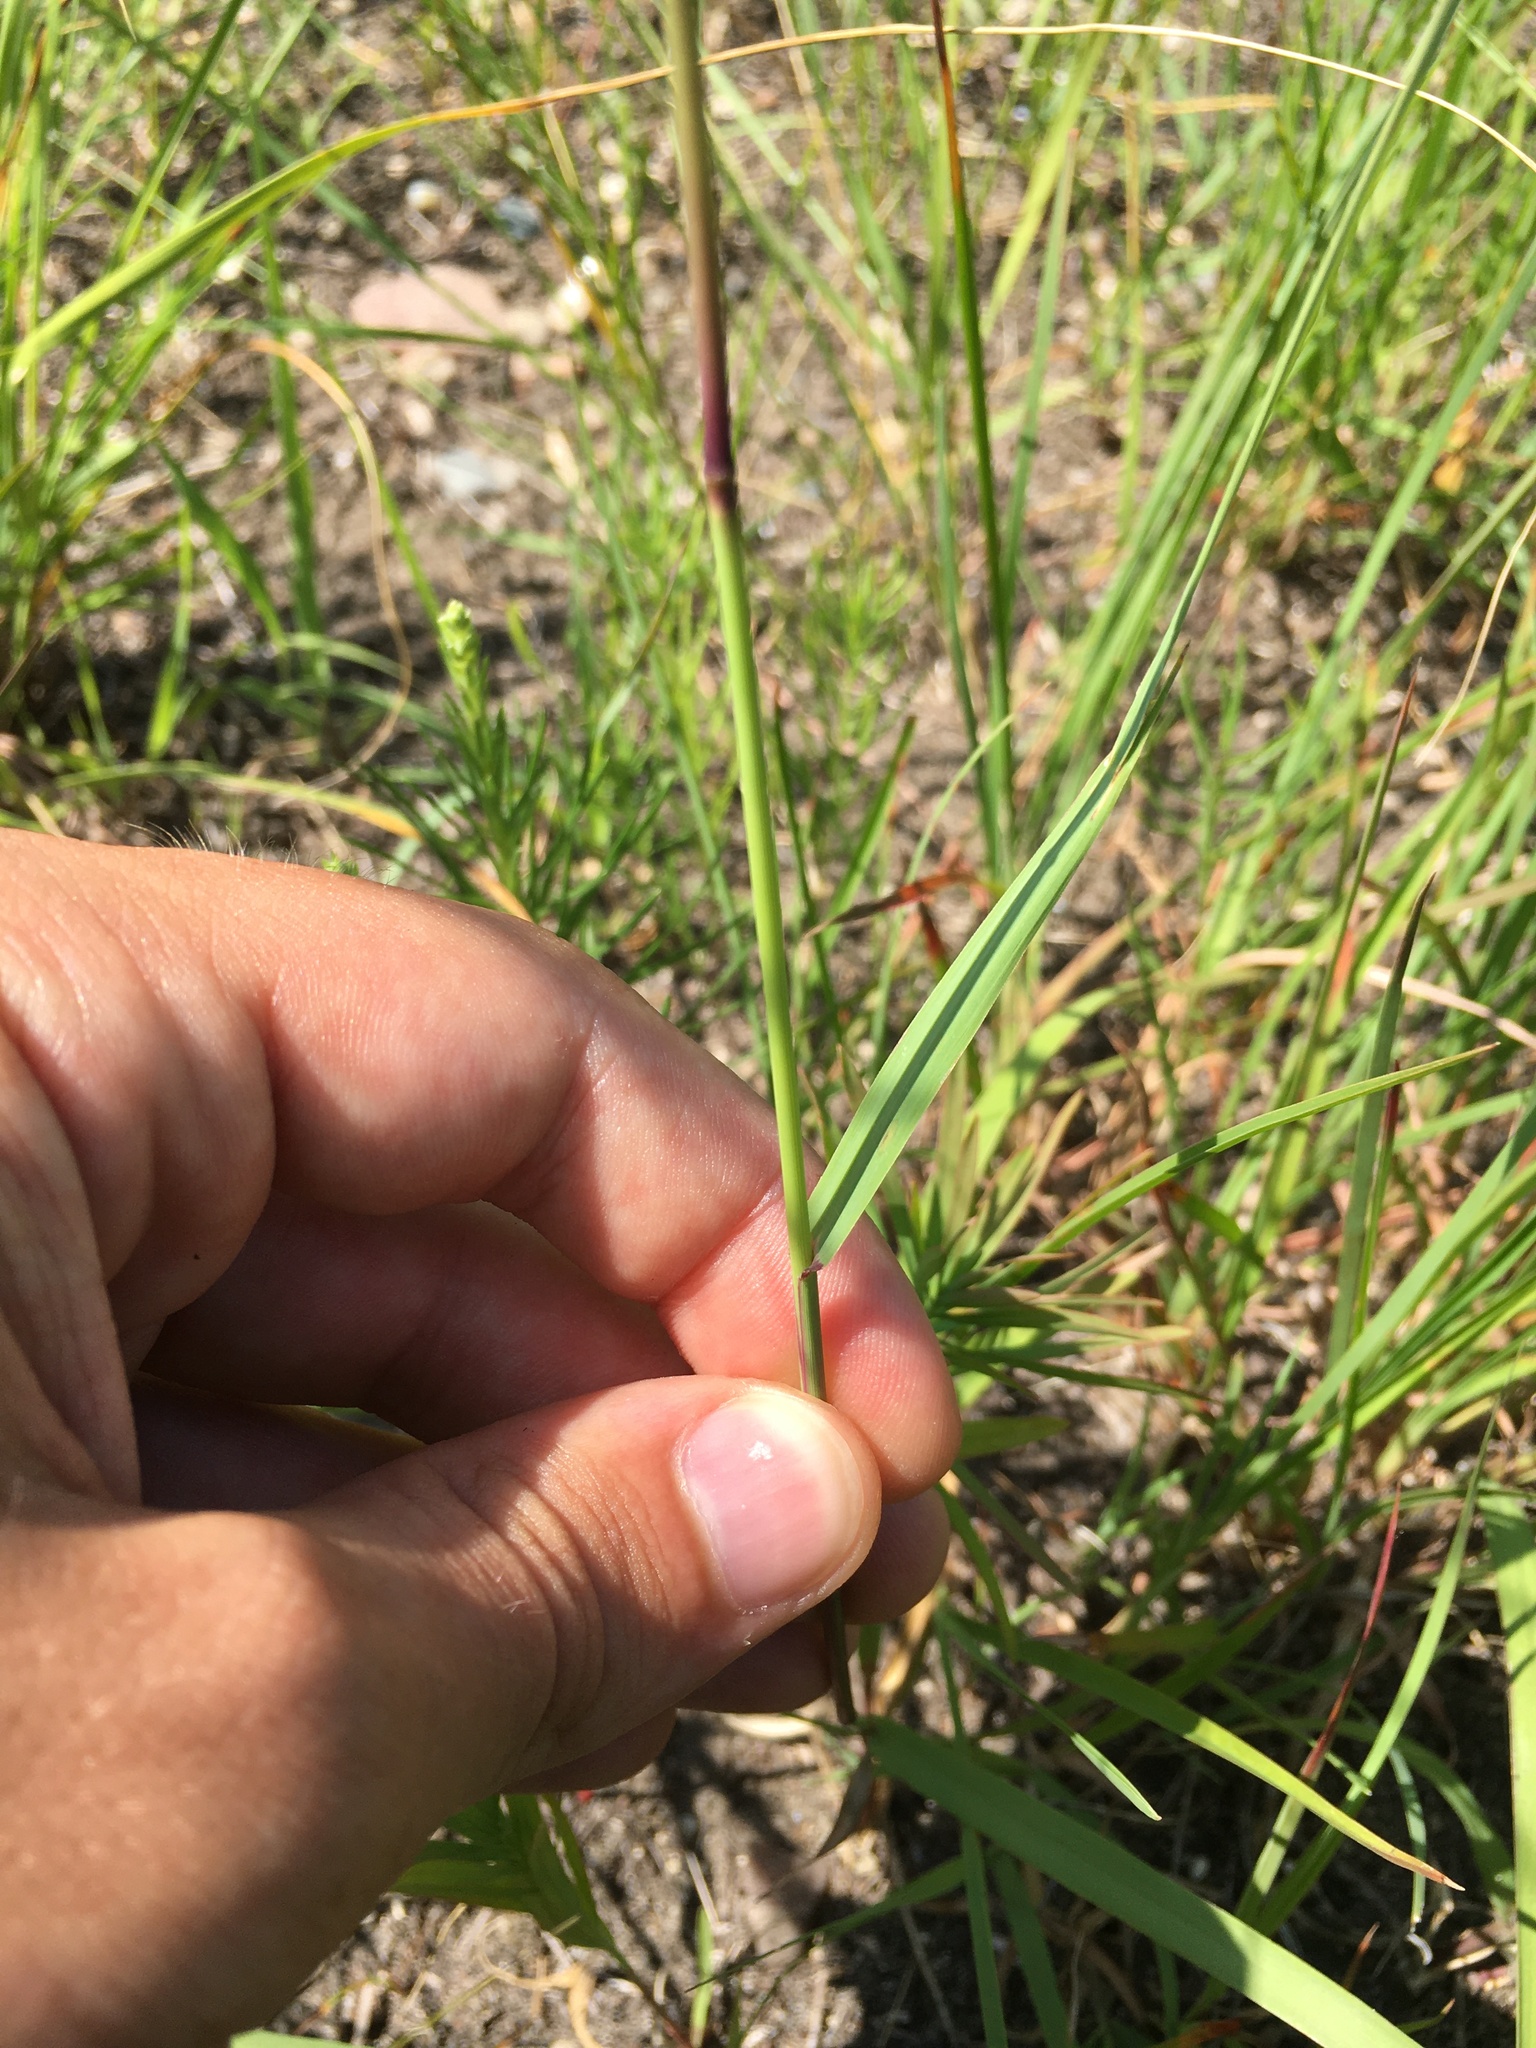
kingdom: Plantae
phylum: Tracheophyta
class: Liliopsida
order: Poales
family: Poaceae
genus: Bouteloua
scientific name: Bouteloua curtipendula
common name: Side-oats grama
